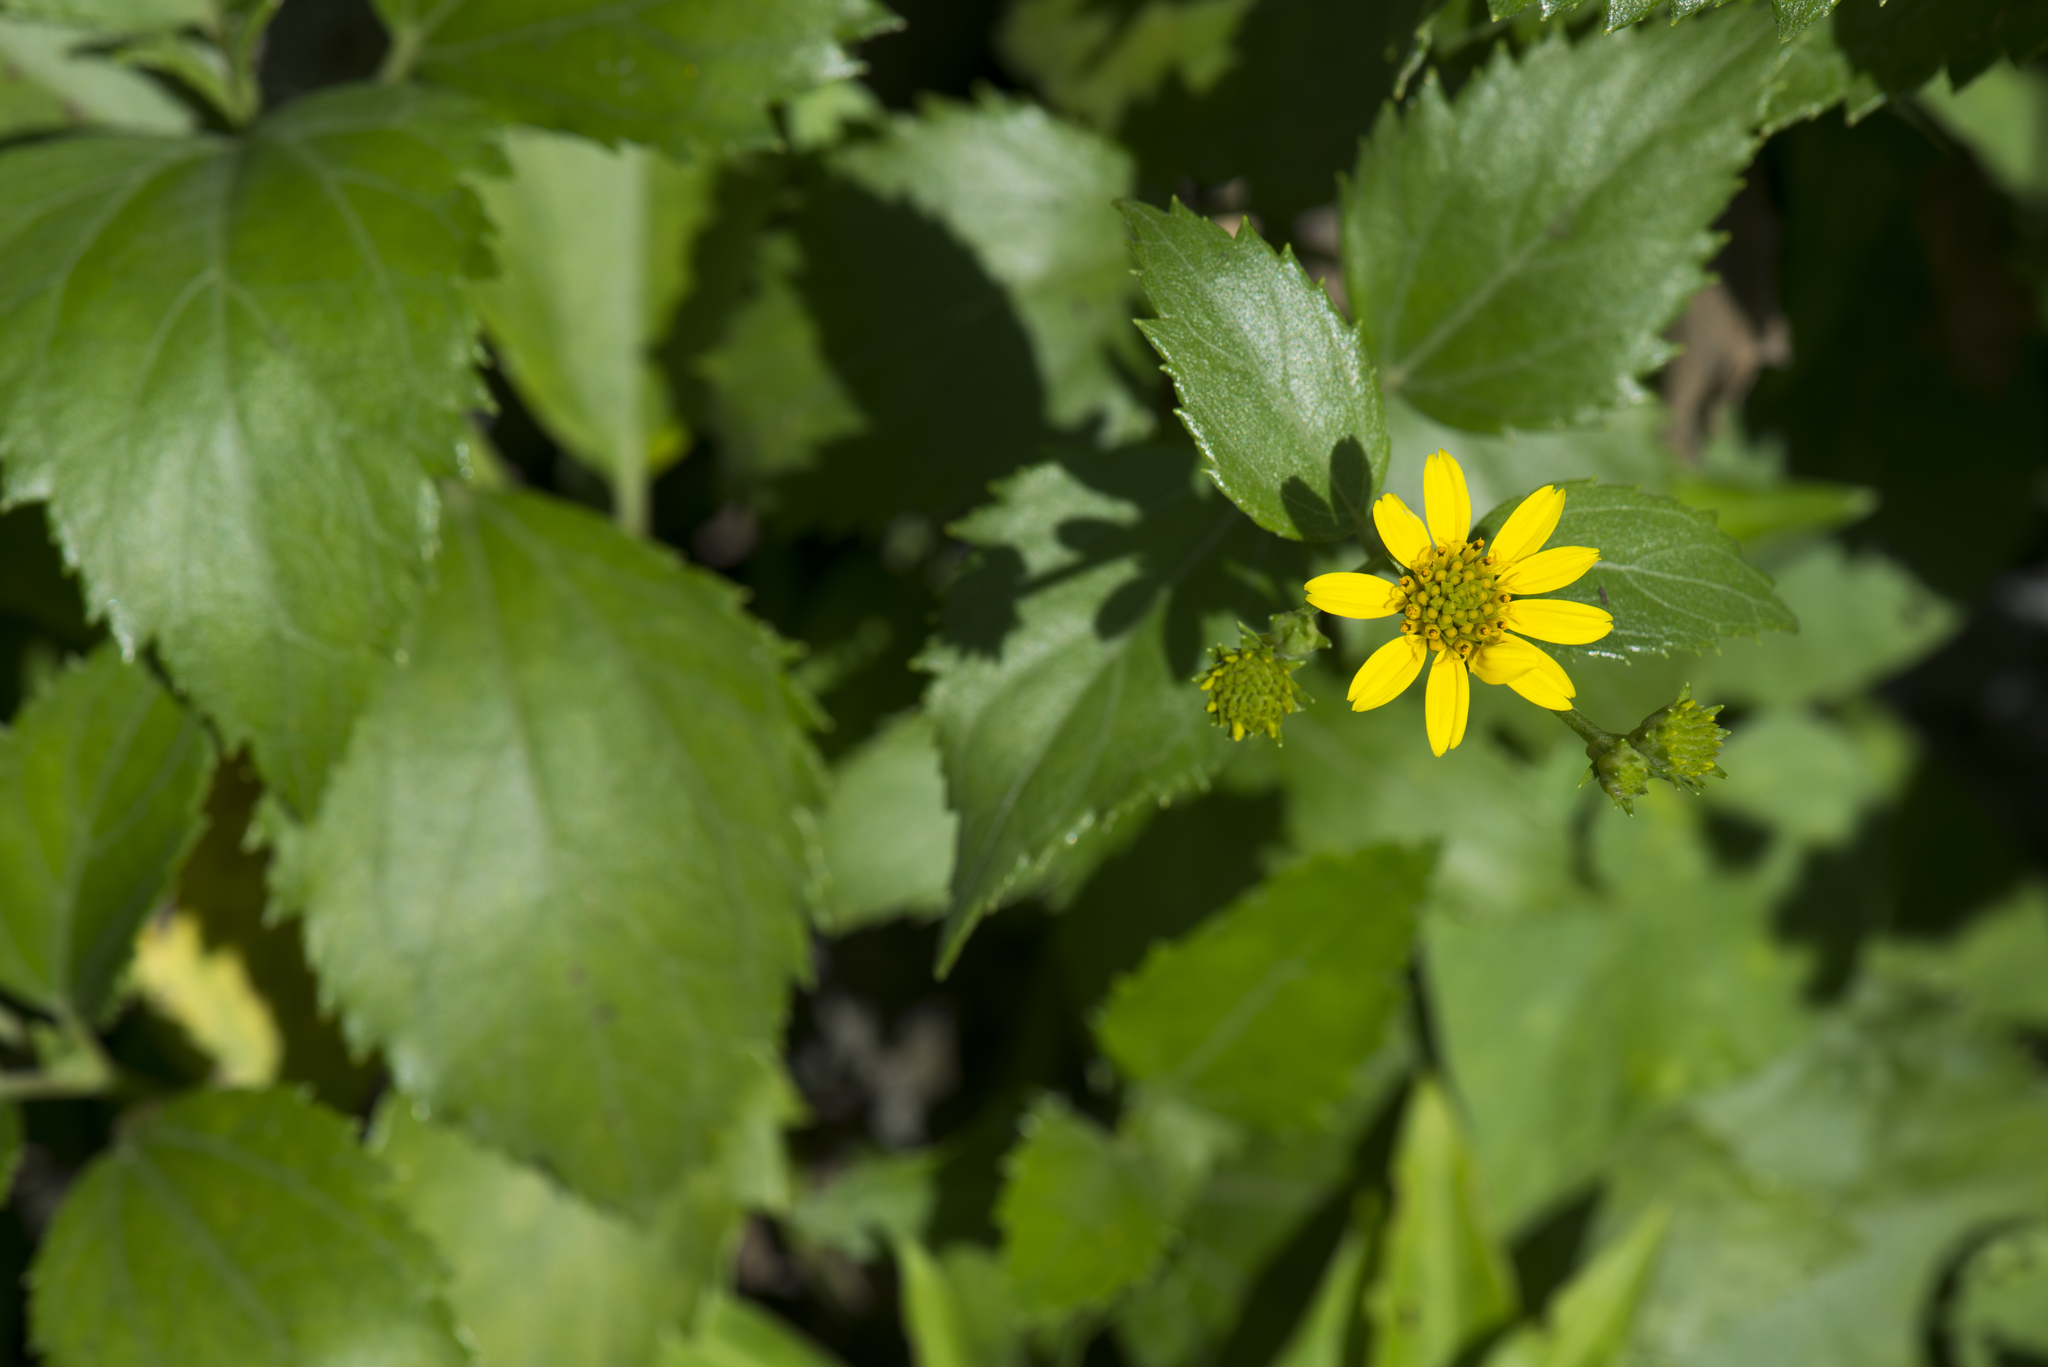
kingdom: Plantae
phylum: Tracheophyta
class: Magnoliopsida
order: Asterales
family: Asteraceae
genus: Wollastonia
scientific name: Wollastonia biflora
